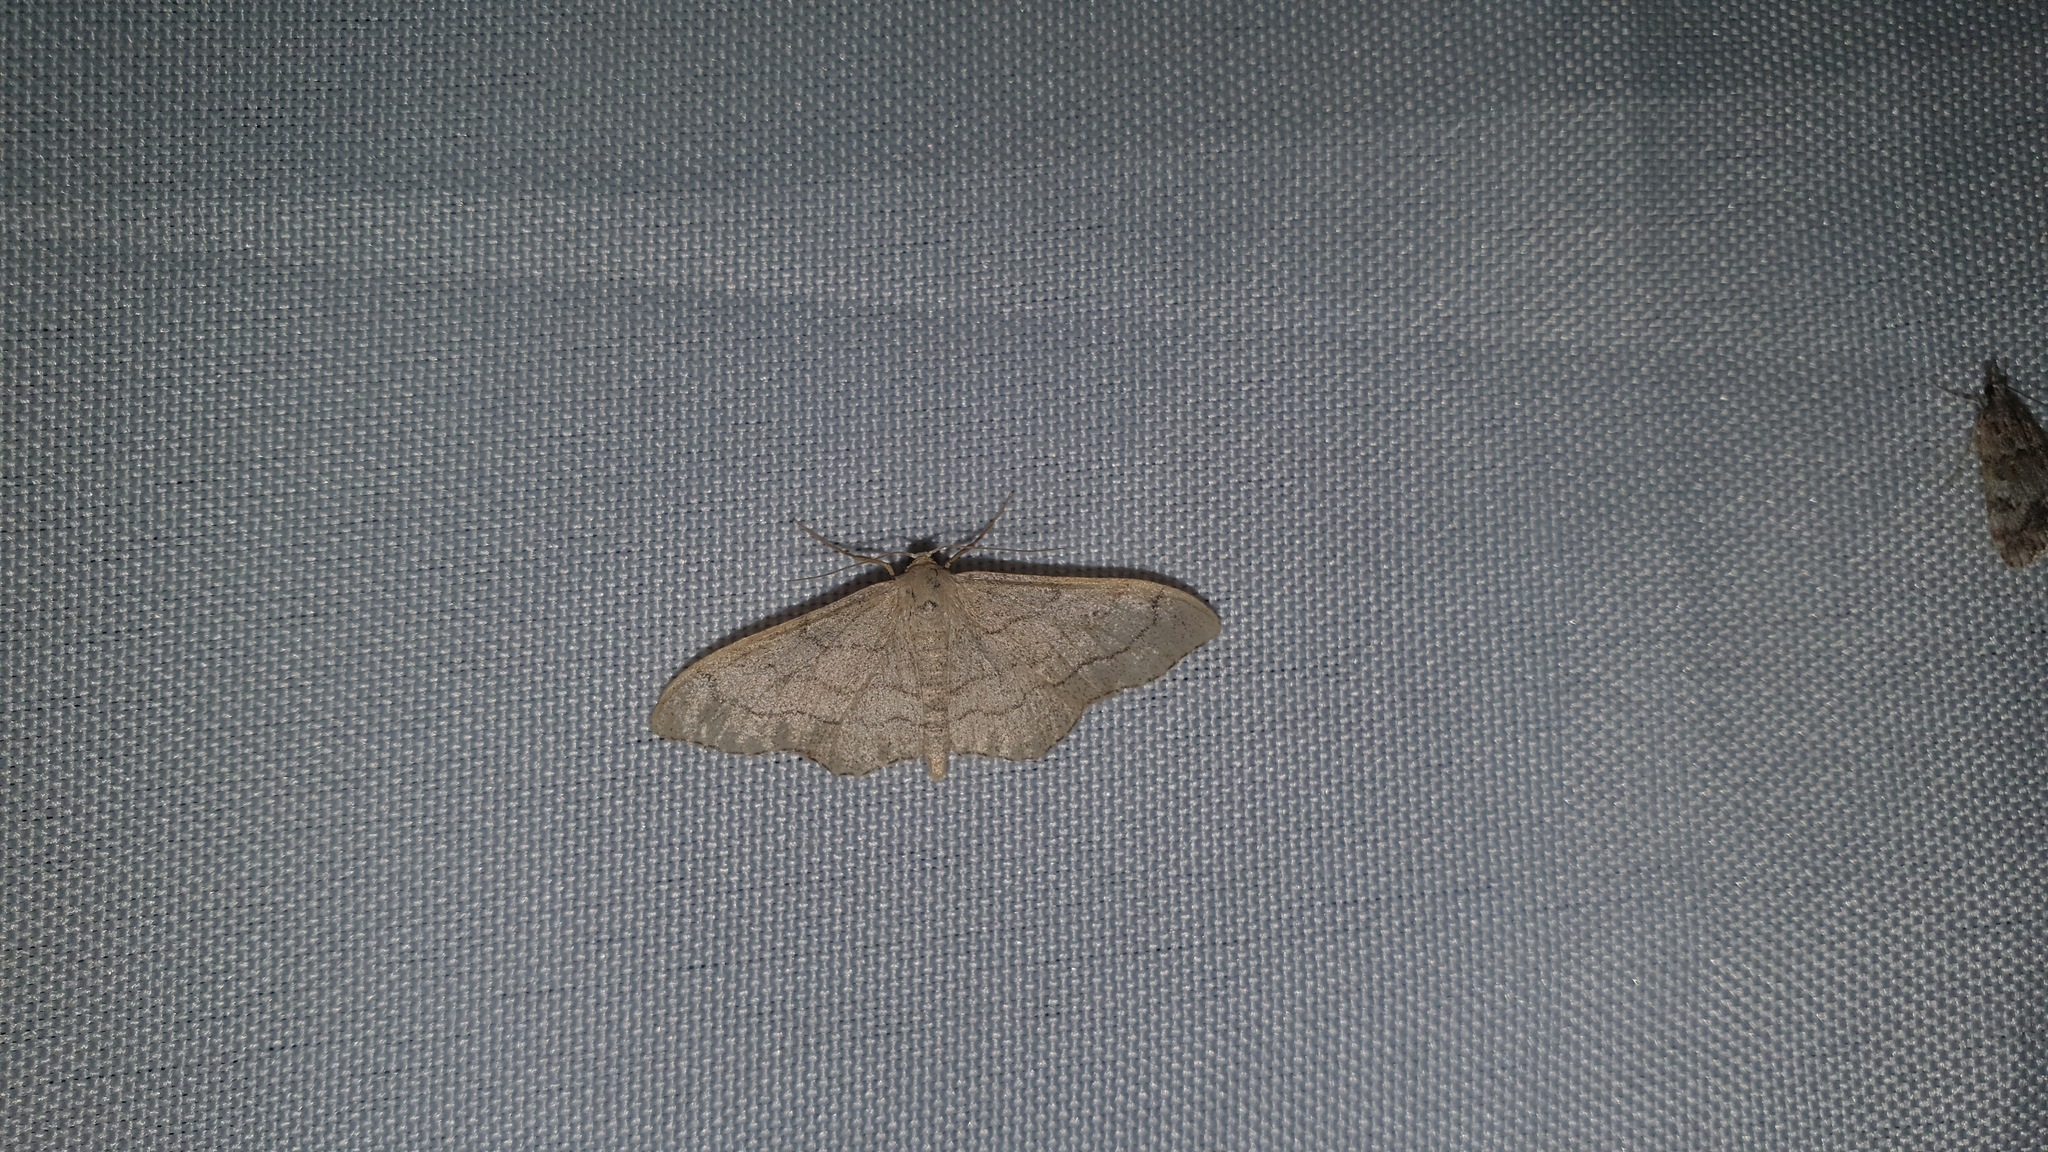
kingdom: Animalia
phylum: Arthropoda
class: Insecta
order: Lepidoptera
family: Geometridae
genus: Idaea
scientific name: Idaea aversata
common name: Riband wave
